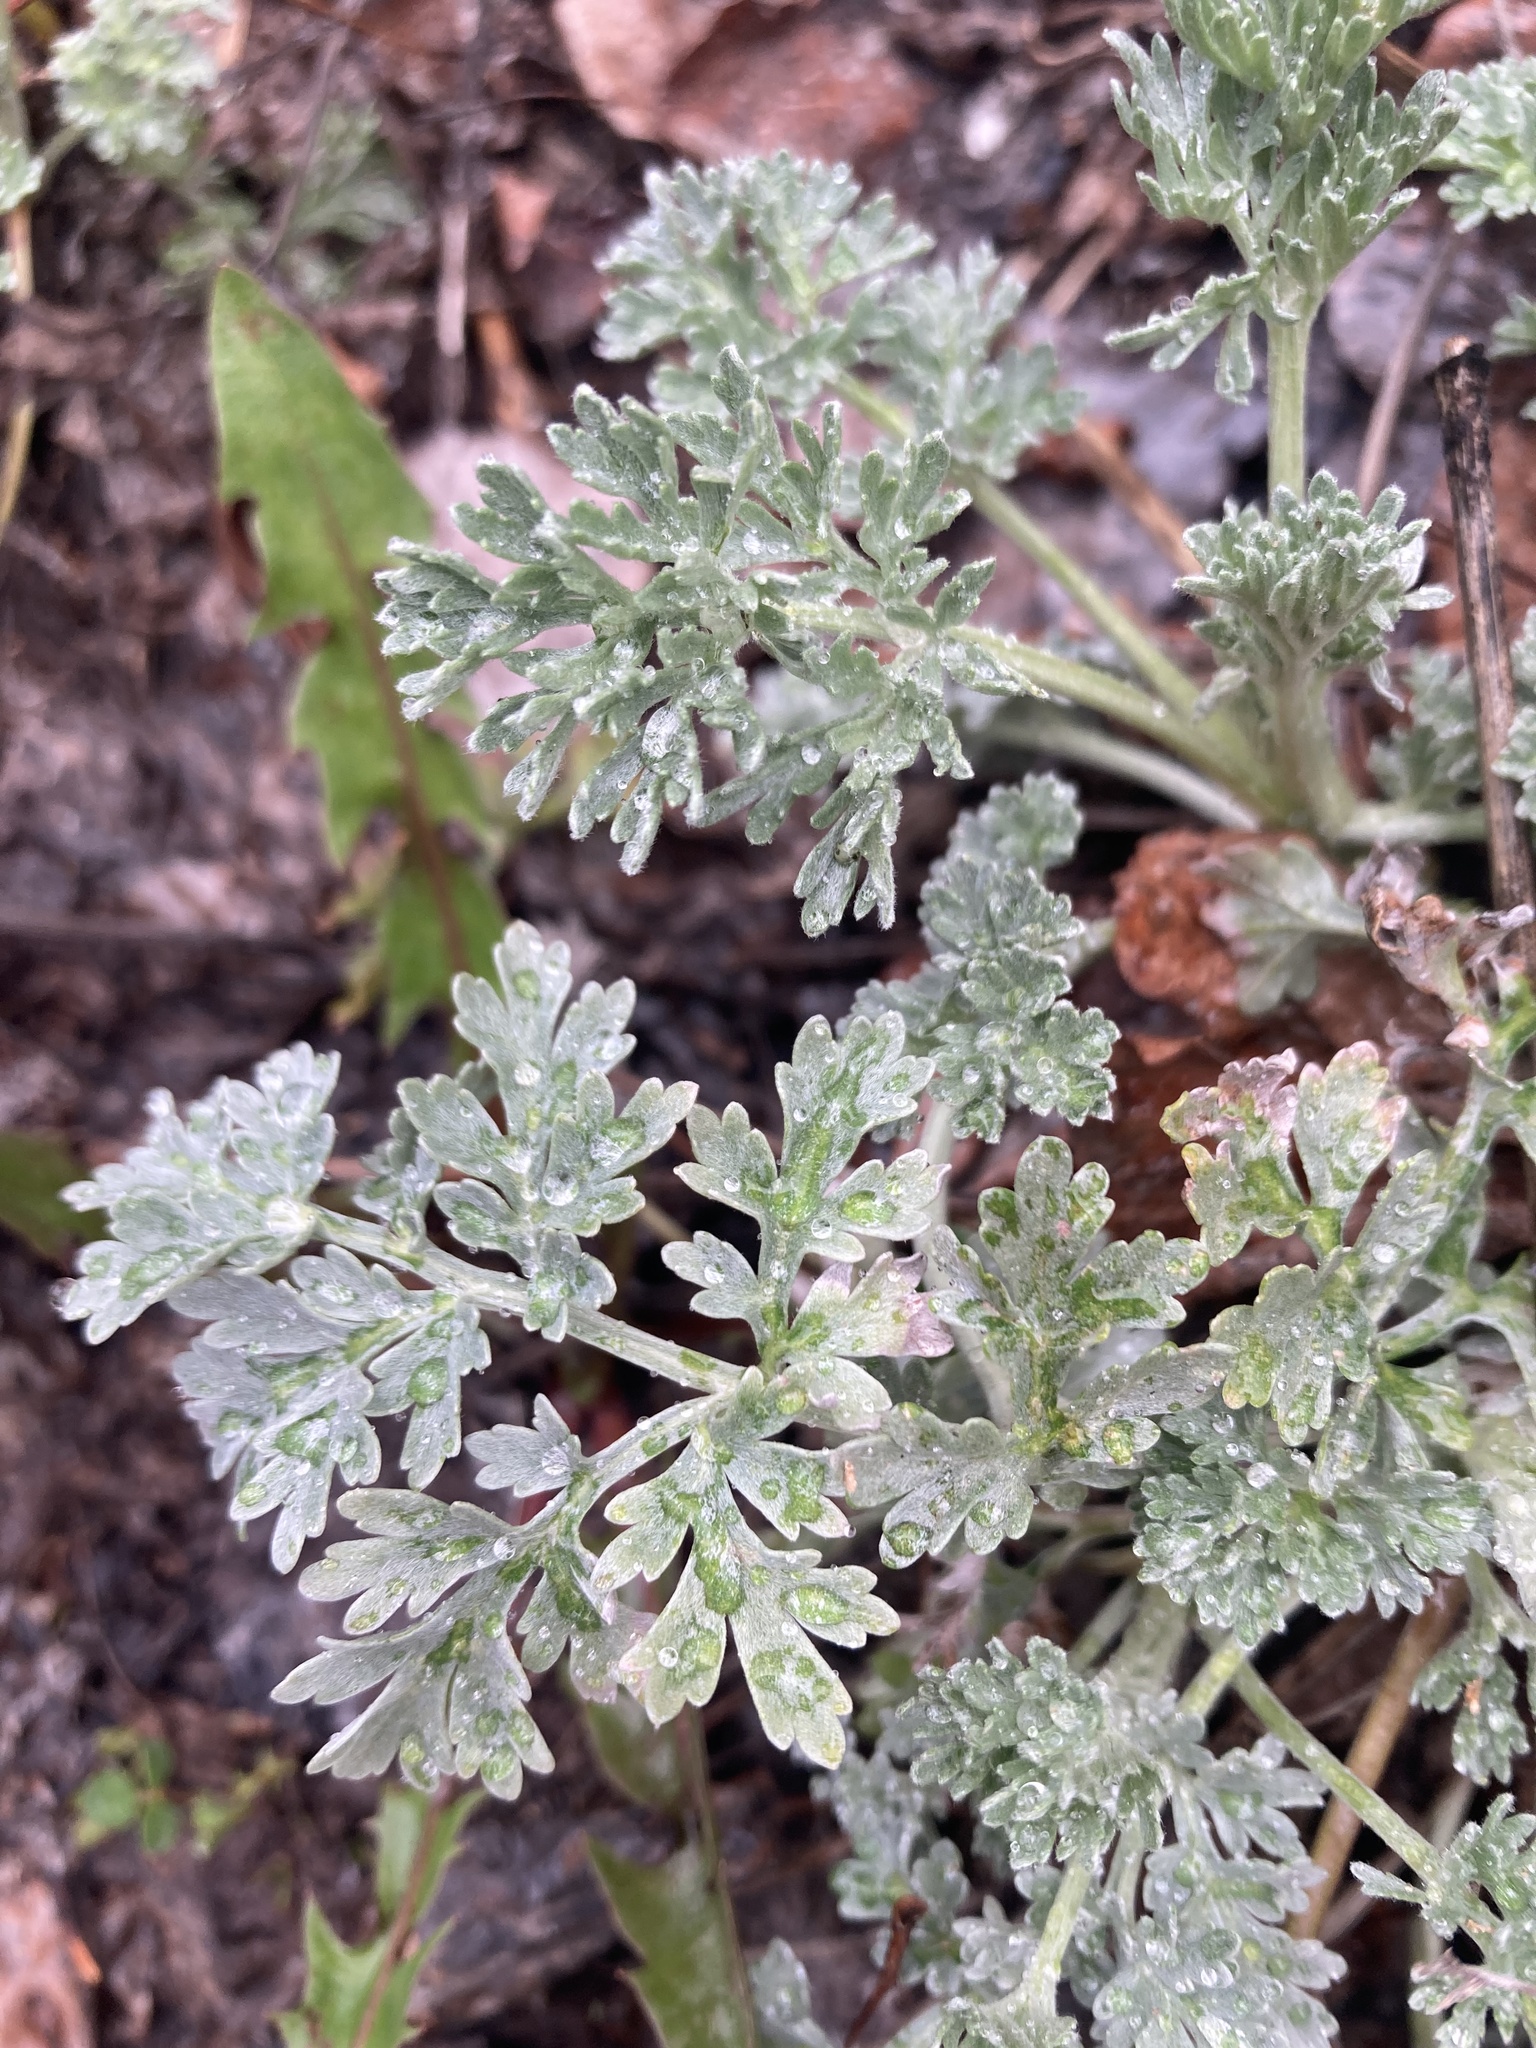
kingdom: Plantae
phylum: Tracheophyta
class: Magnoliopsida
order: Asterales
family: Asteraceae
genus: Artemisia
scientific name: Artemisia absinthium
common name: Wormwood
